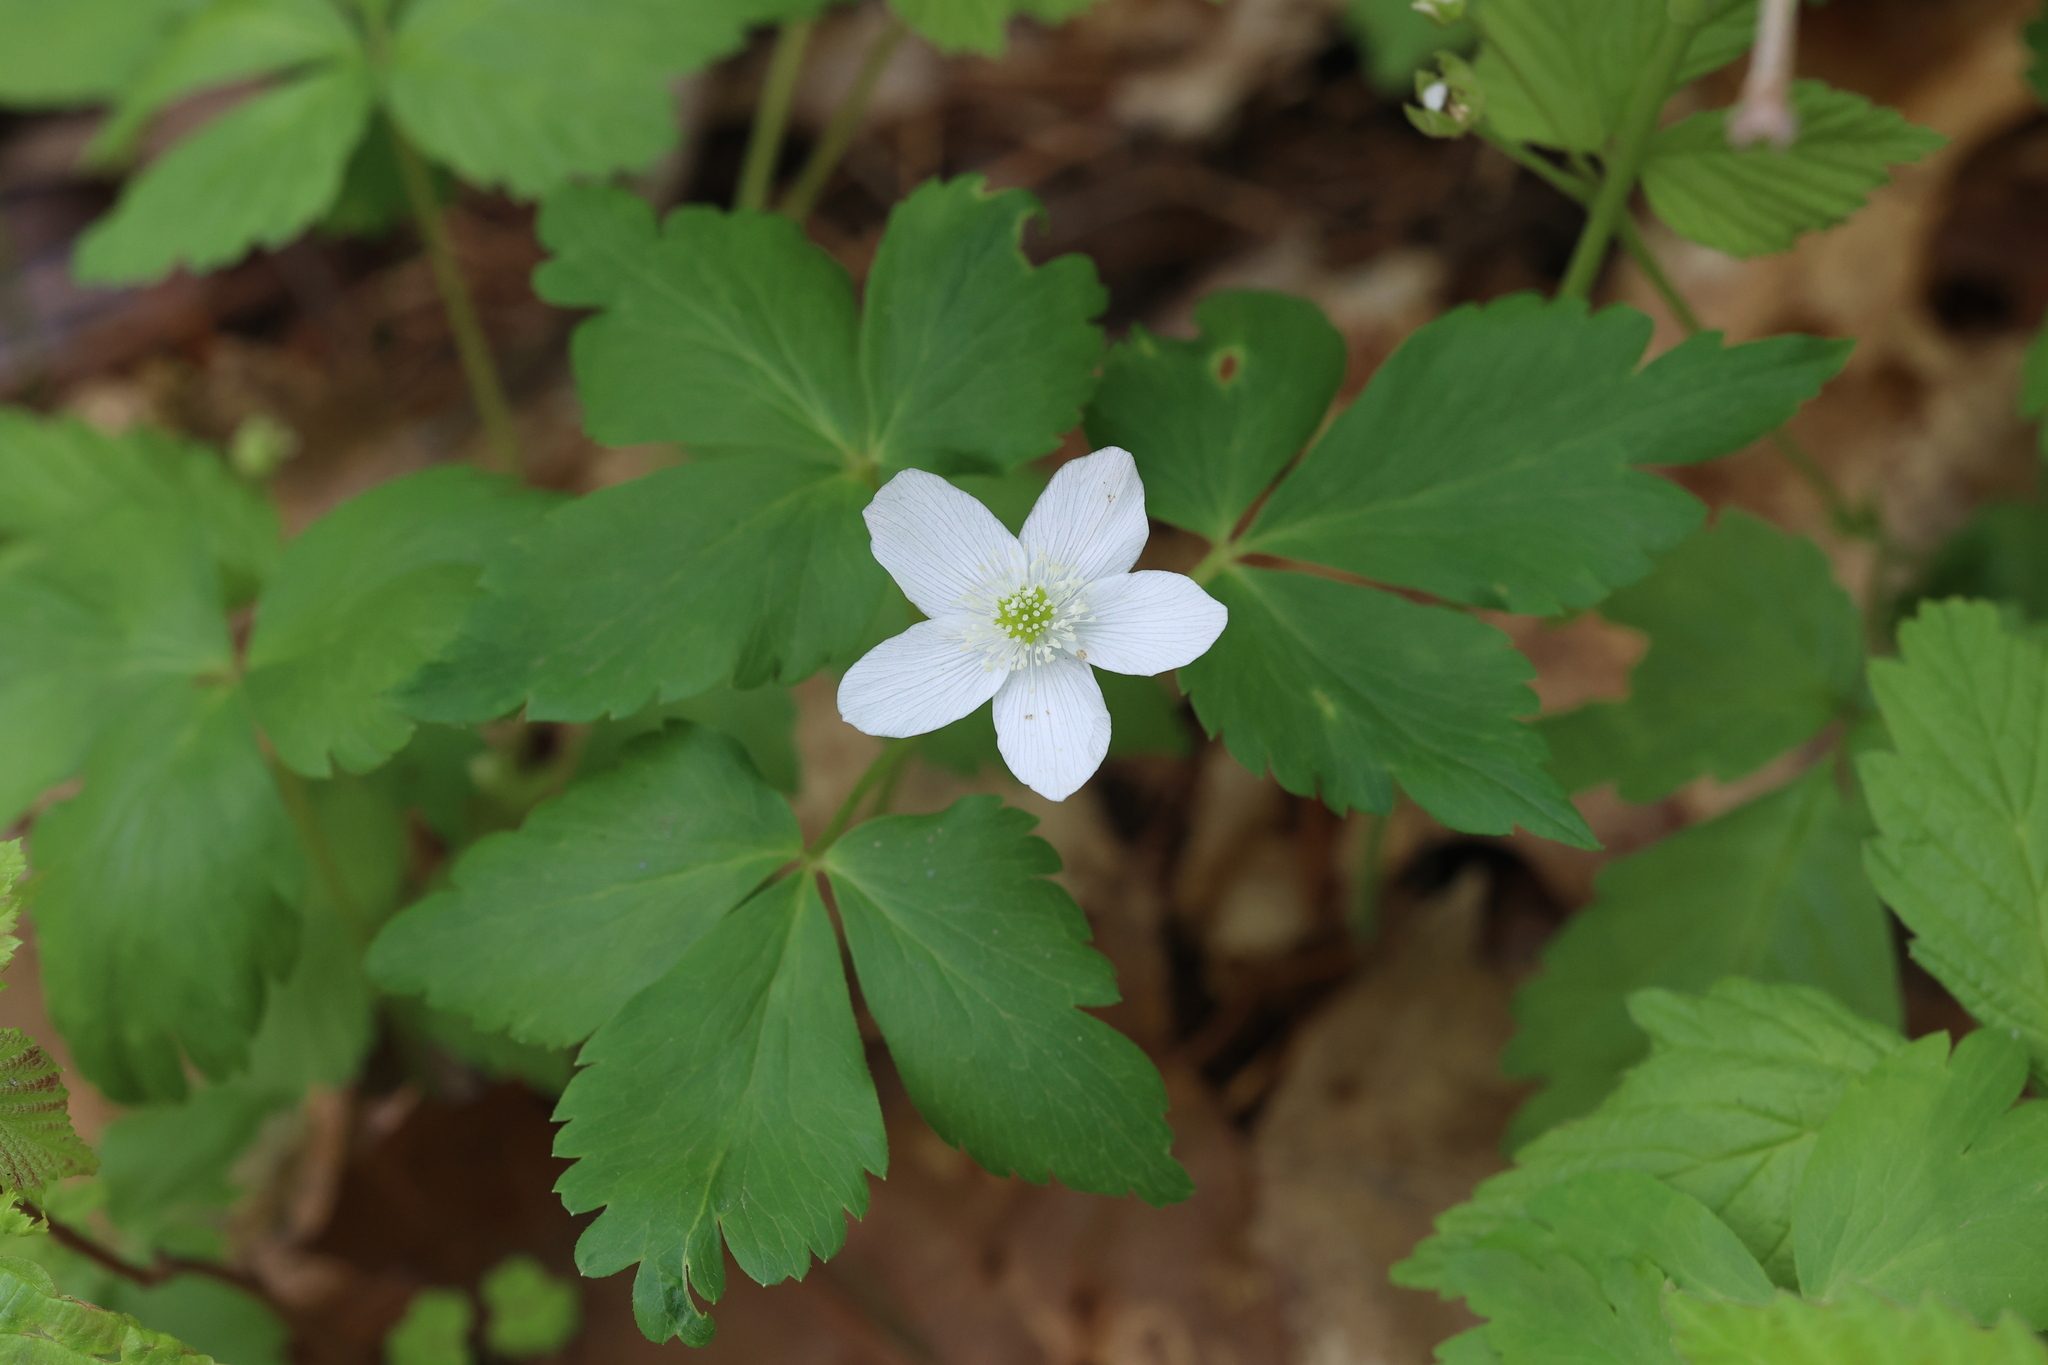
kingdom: Plantae
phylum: Tracheophyta
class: Magnoliopsida
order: Ranunculales
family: Ranunculaceae
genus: Anemone
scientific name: Anemone quinquefolia
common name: Wood anemone
